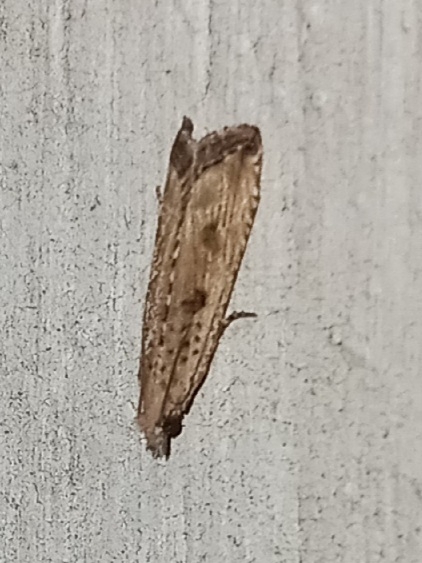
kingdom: Animalia
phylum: Arthropoda
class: Insecta
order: Lepidoptera
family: Tortricidae
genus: Bactra
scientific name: Bactra verutana
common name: Javelin moth
